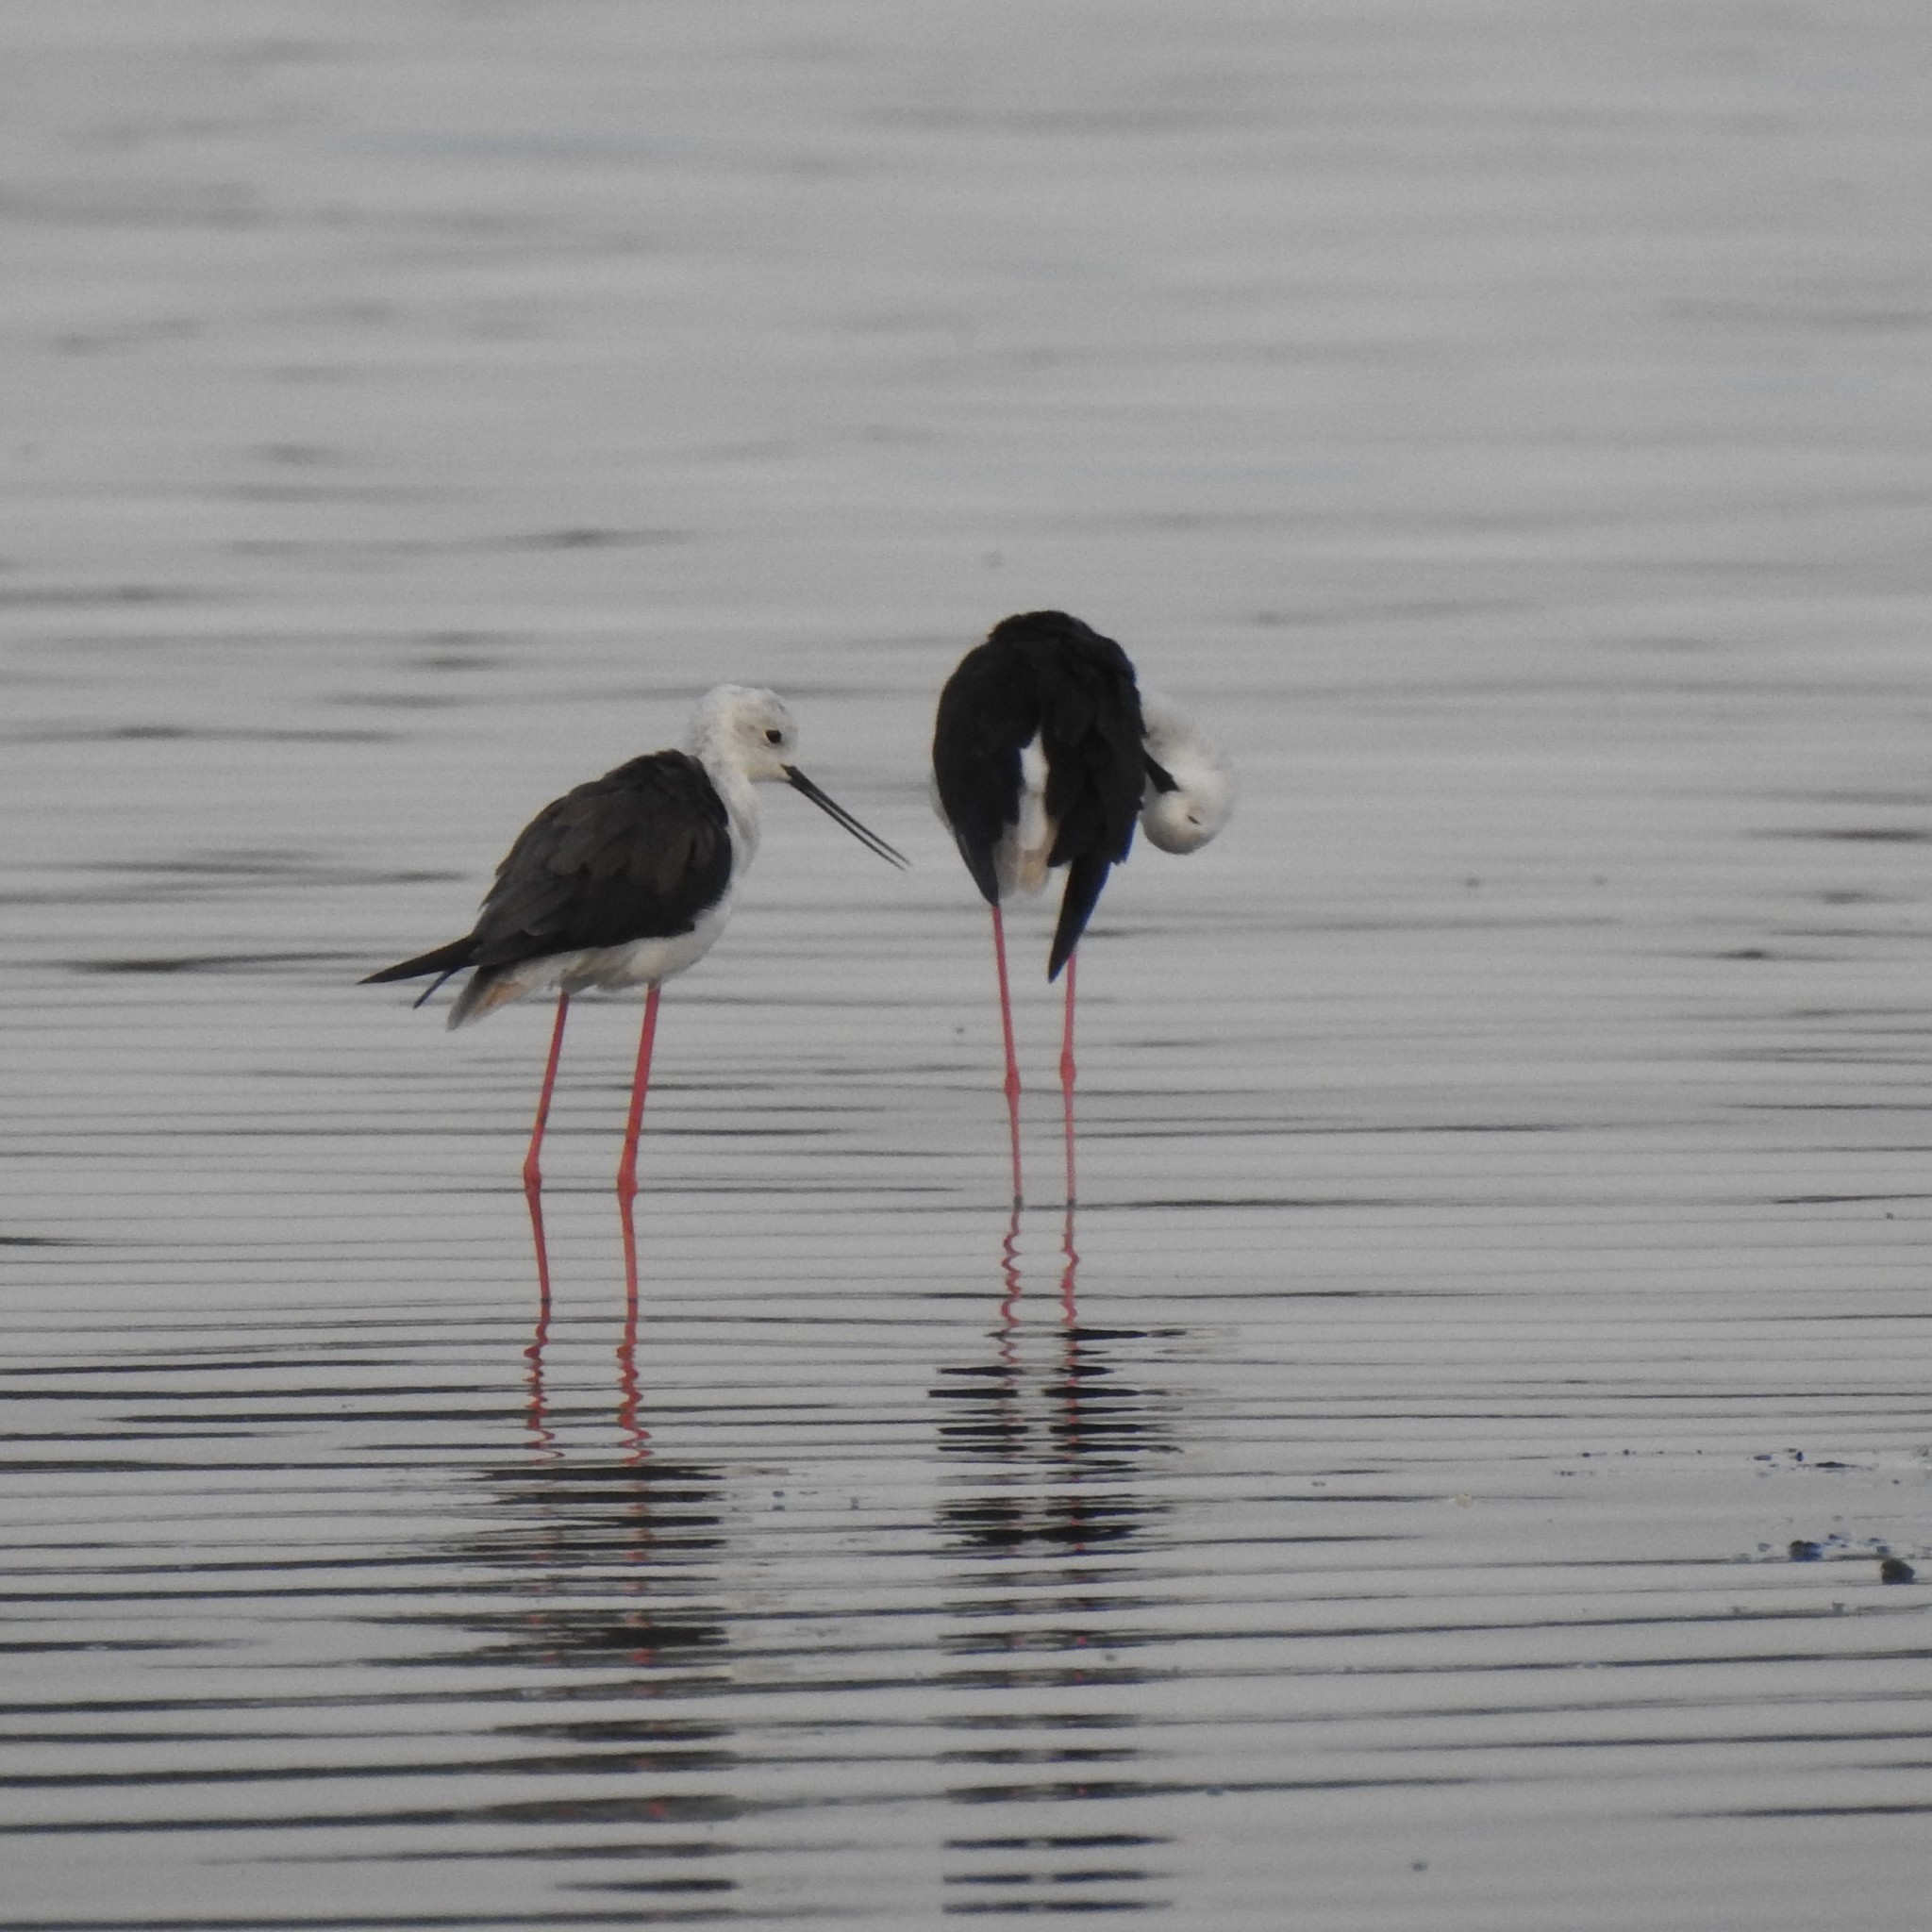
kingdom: Animalia
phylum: Chordata
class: Aves
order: Charadriiformes
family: Recurvirostridae
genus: Himantopus
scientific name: Himantopus himantopus
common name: Black-winged stilt
